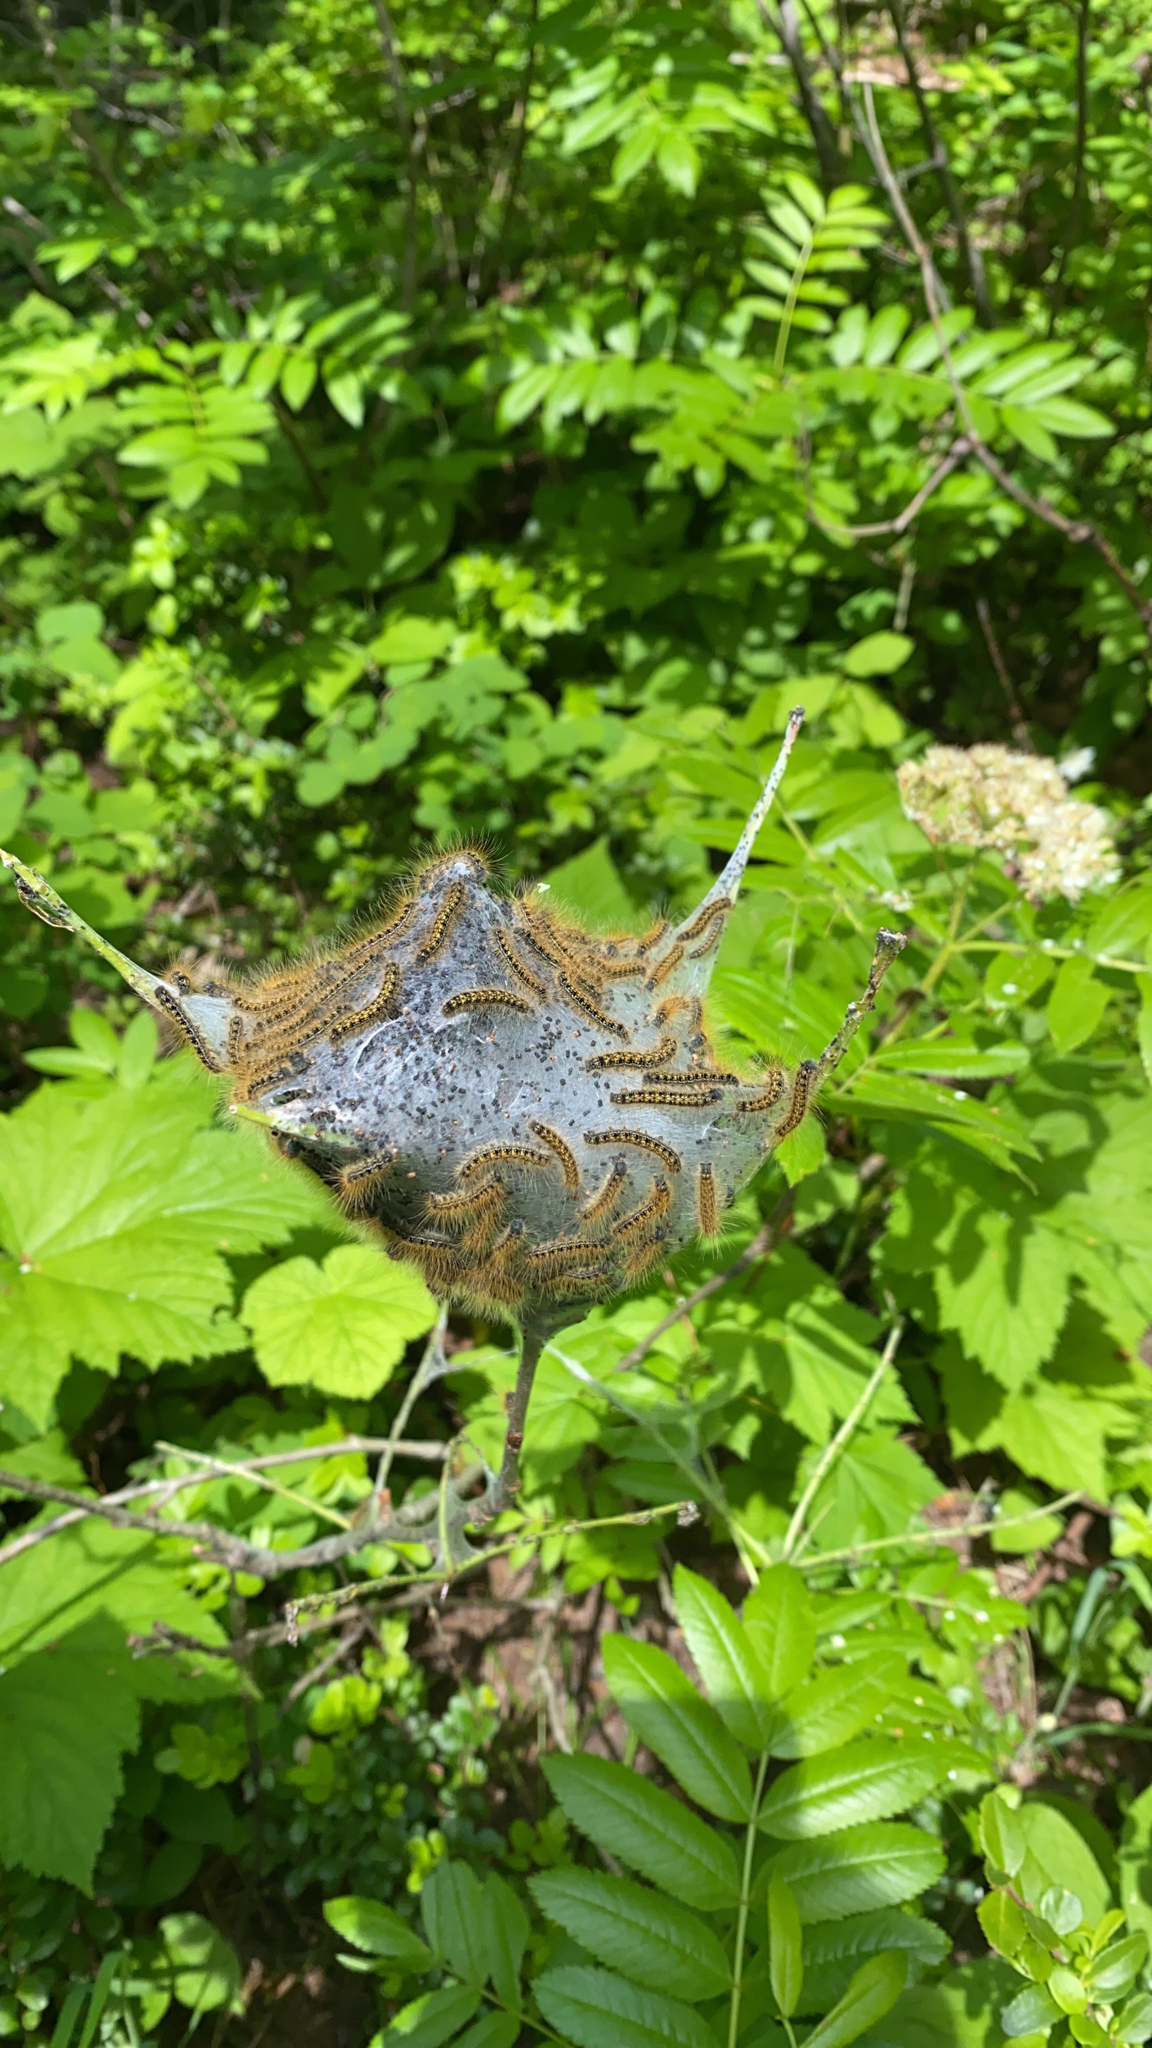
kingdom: Animalia
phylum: Arthropoda
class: Insecta
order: Lepidoptera
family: Lasiocampidae
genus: Malacosoma
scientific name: Malacosoma californica
